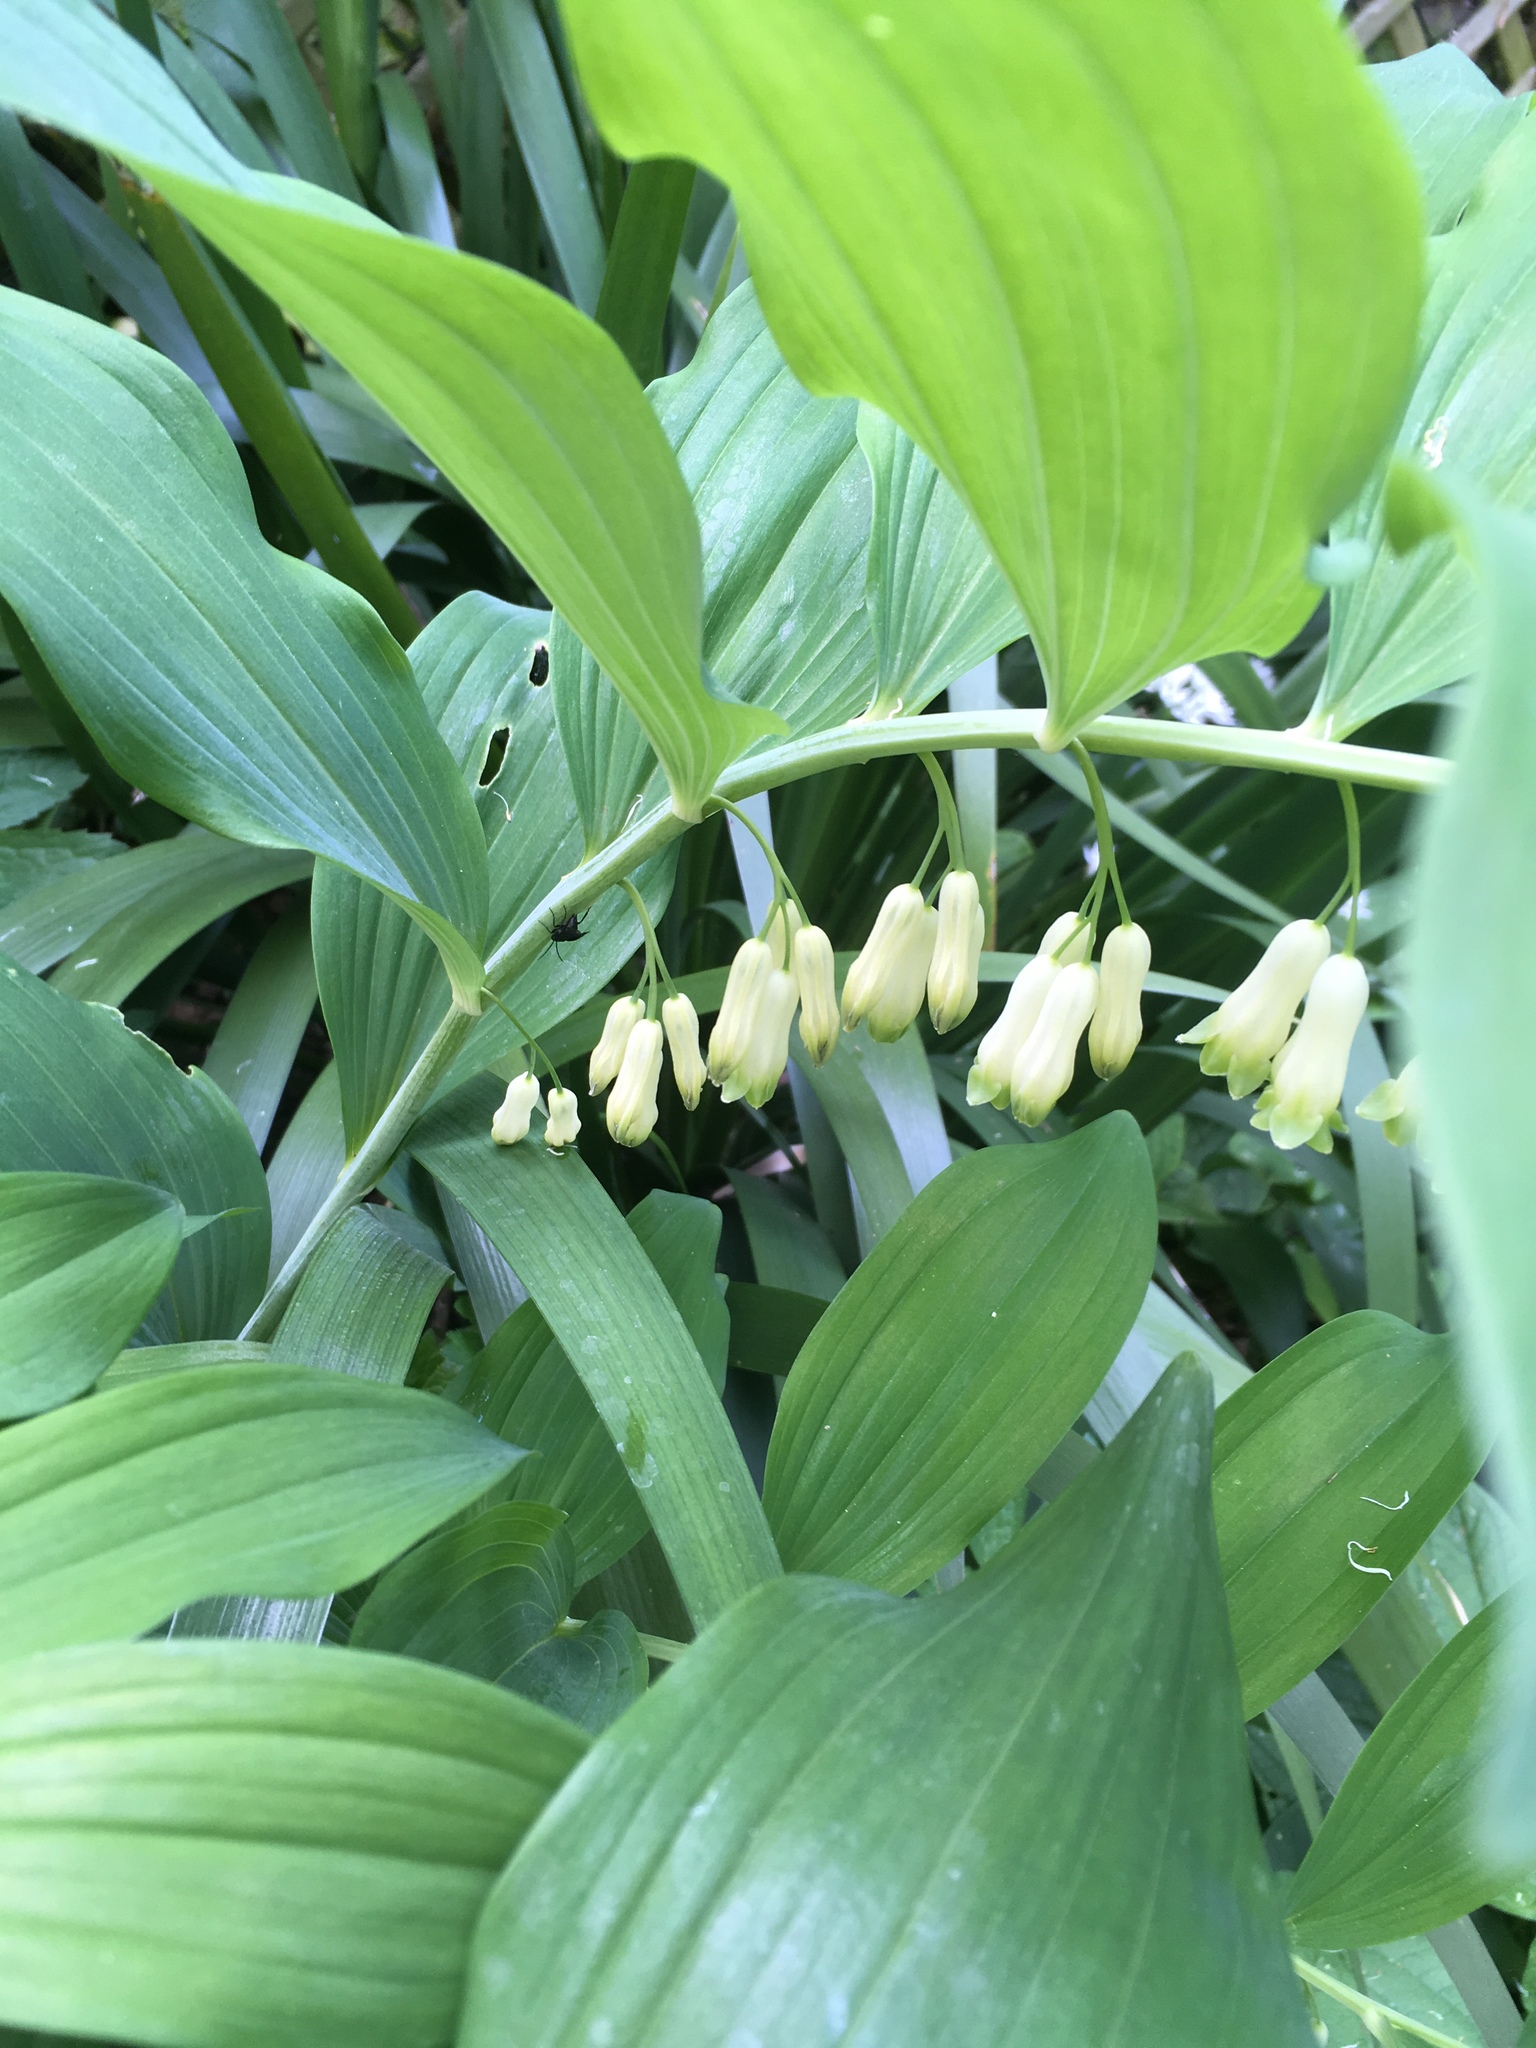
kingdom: Plantae
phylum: Tracheophyta
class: Liliopsida
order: Asparagales
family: Asparagaceae
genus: Polygonatum
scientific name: Polygonatum hybridum
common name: Garden solomon's-seal
